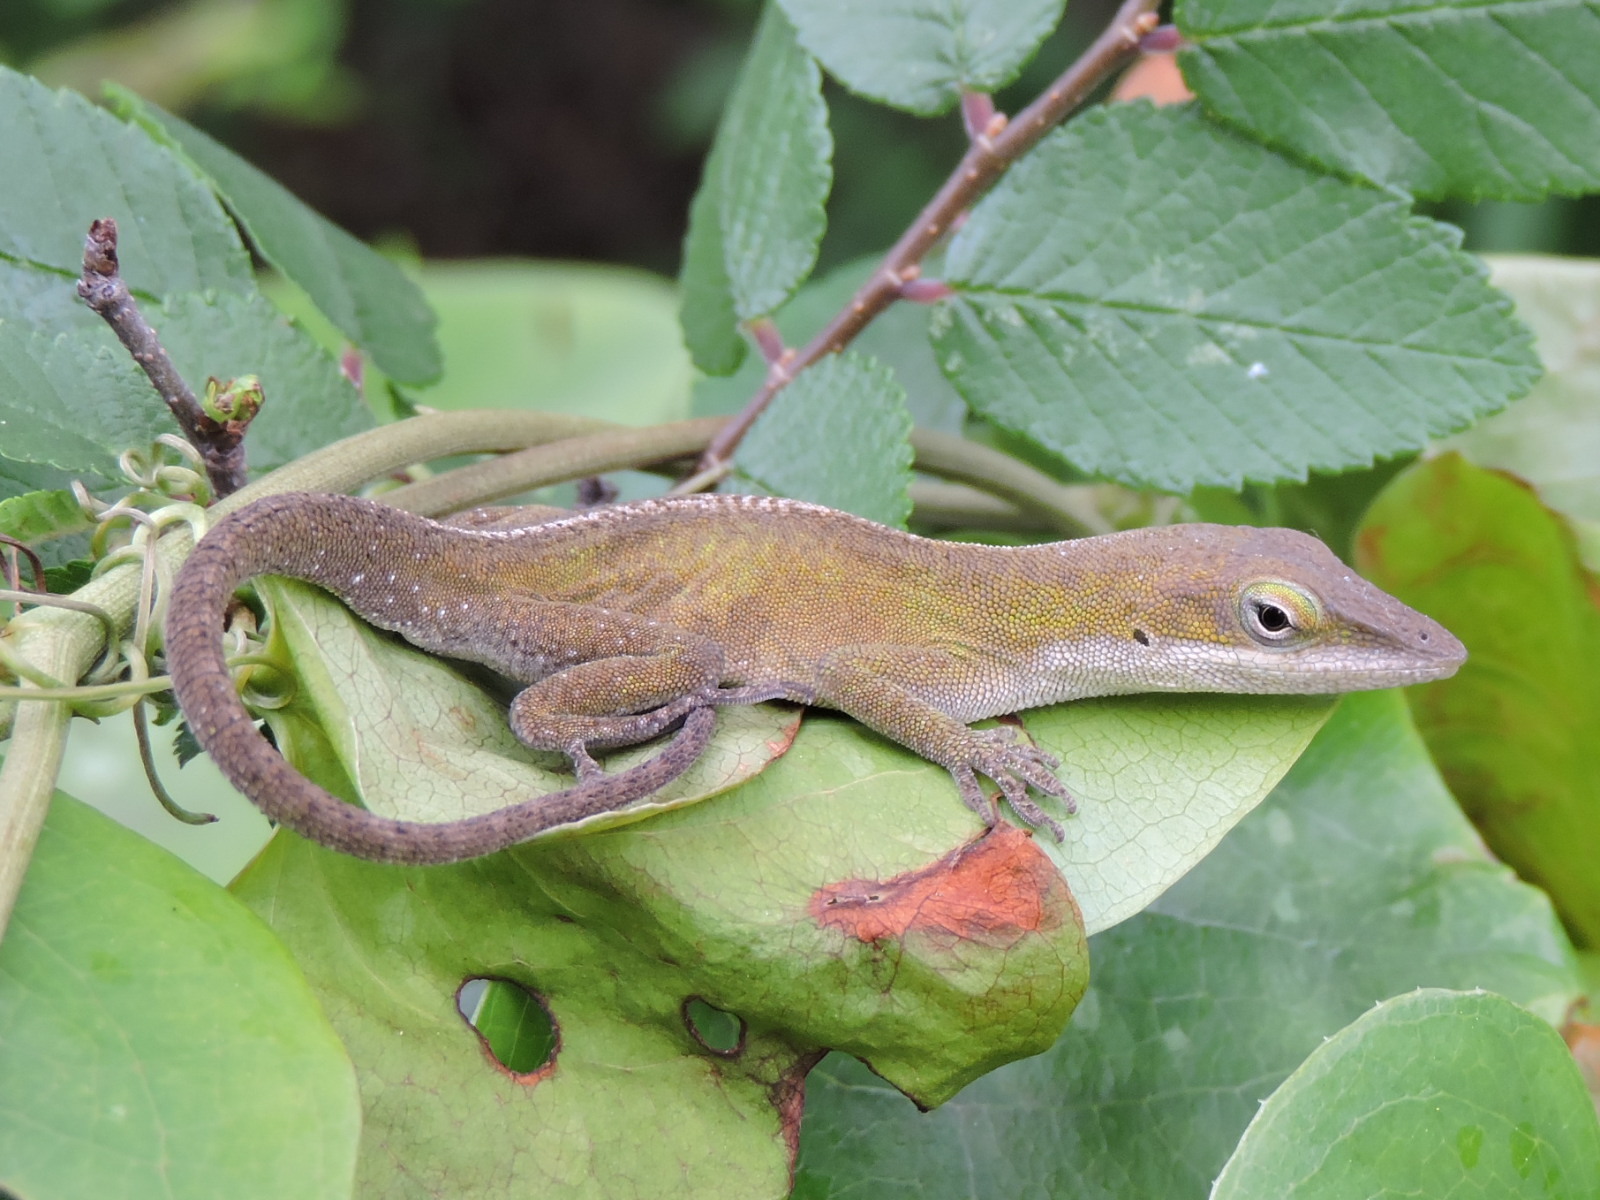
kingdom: Animalia
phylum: Chordata
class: Squamata
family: Dactyloidae
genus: Anolis
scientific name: Anolis carolinensis
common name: Green anole
